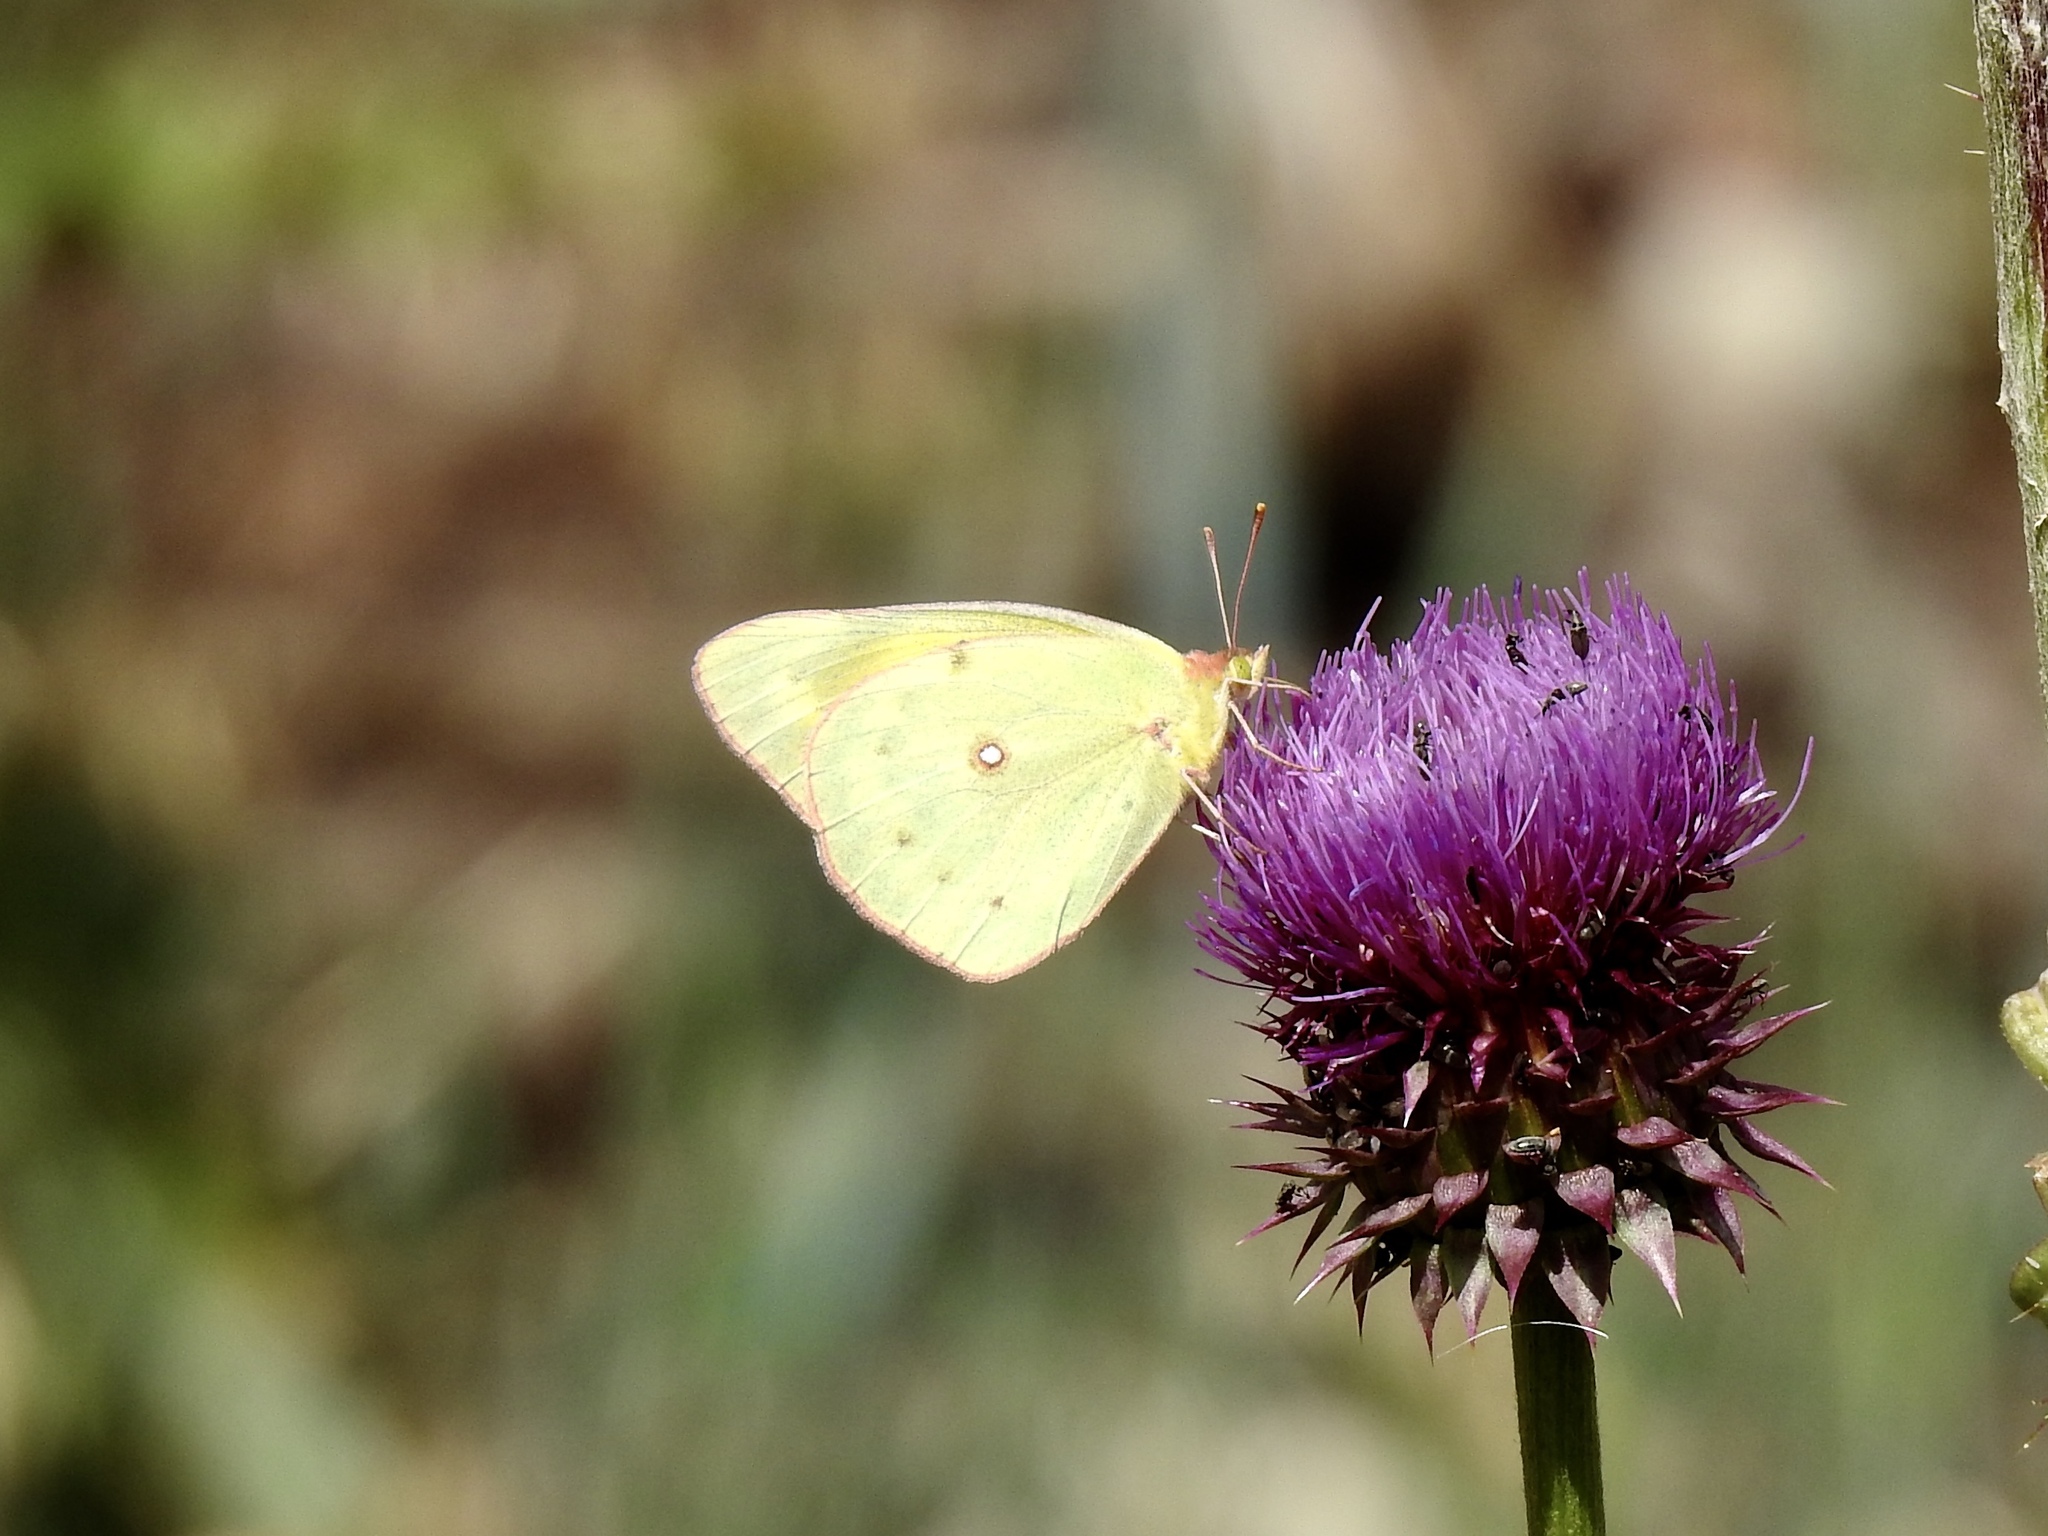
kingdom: Animalia
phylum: Arthropoda
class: Insecta
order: Lepidoptera
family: Pieridae
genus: Colias
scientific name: Colias eurytheme
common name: Alfalfa butterfly
